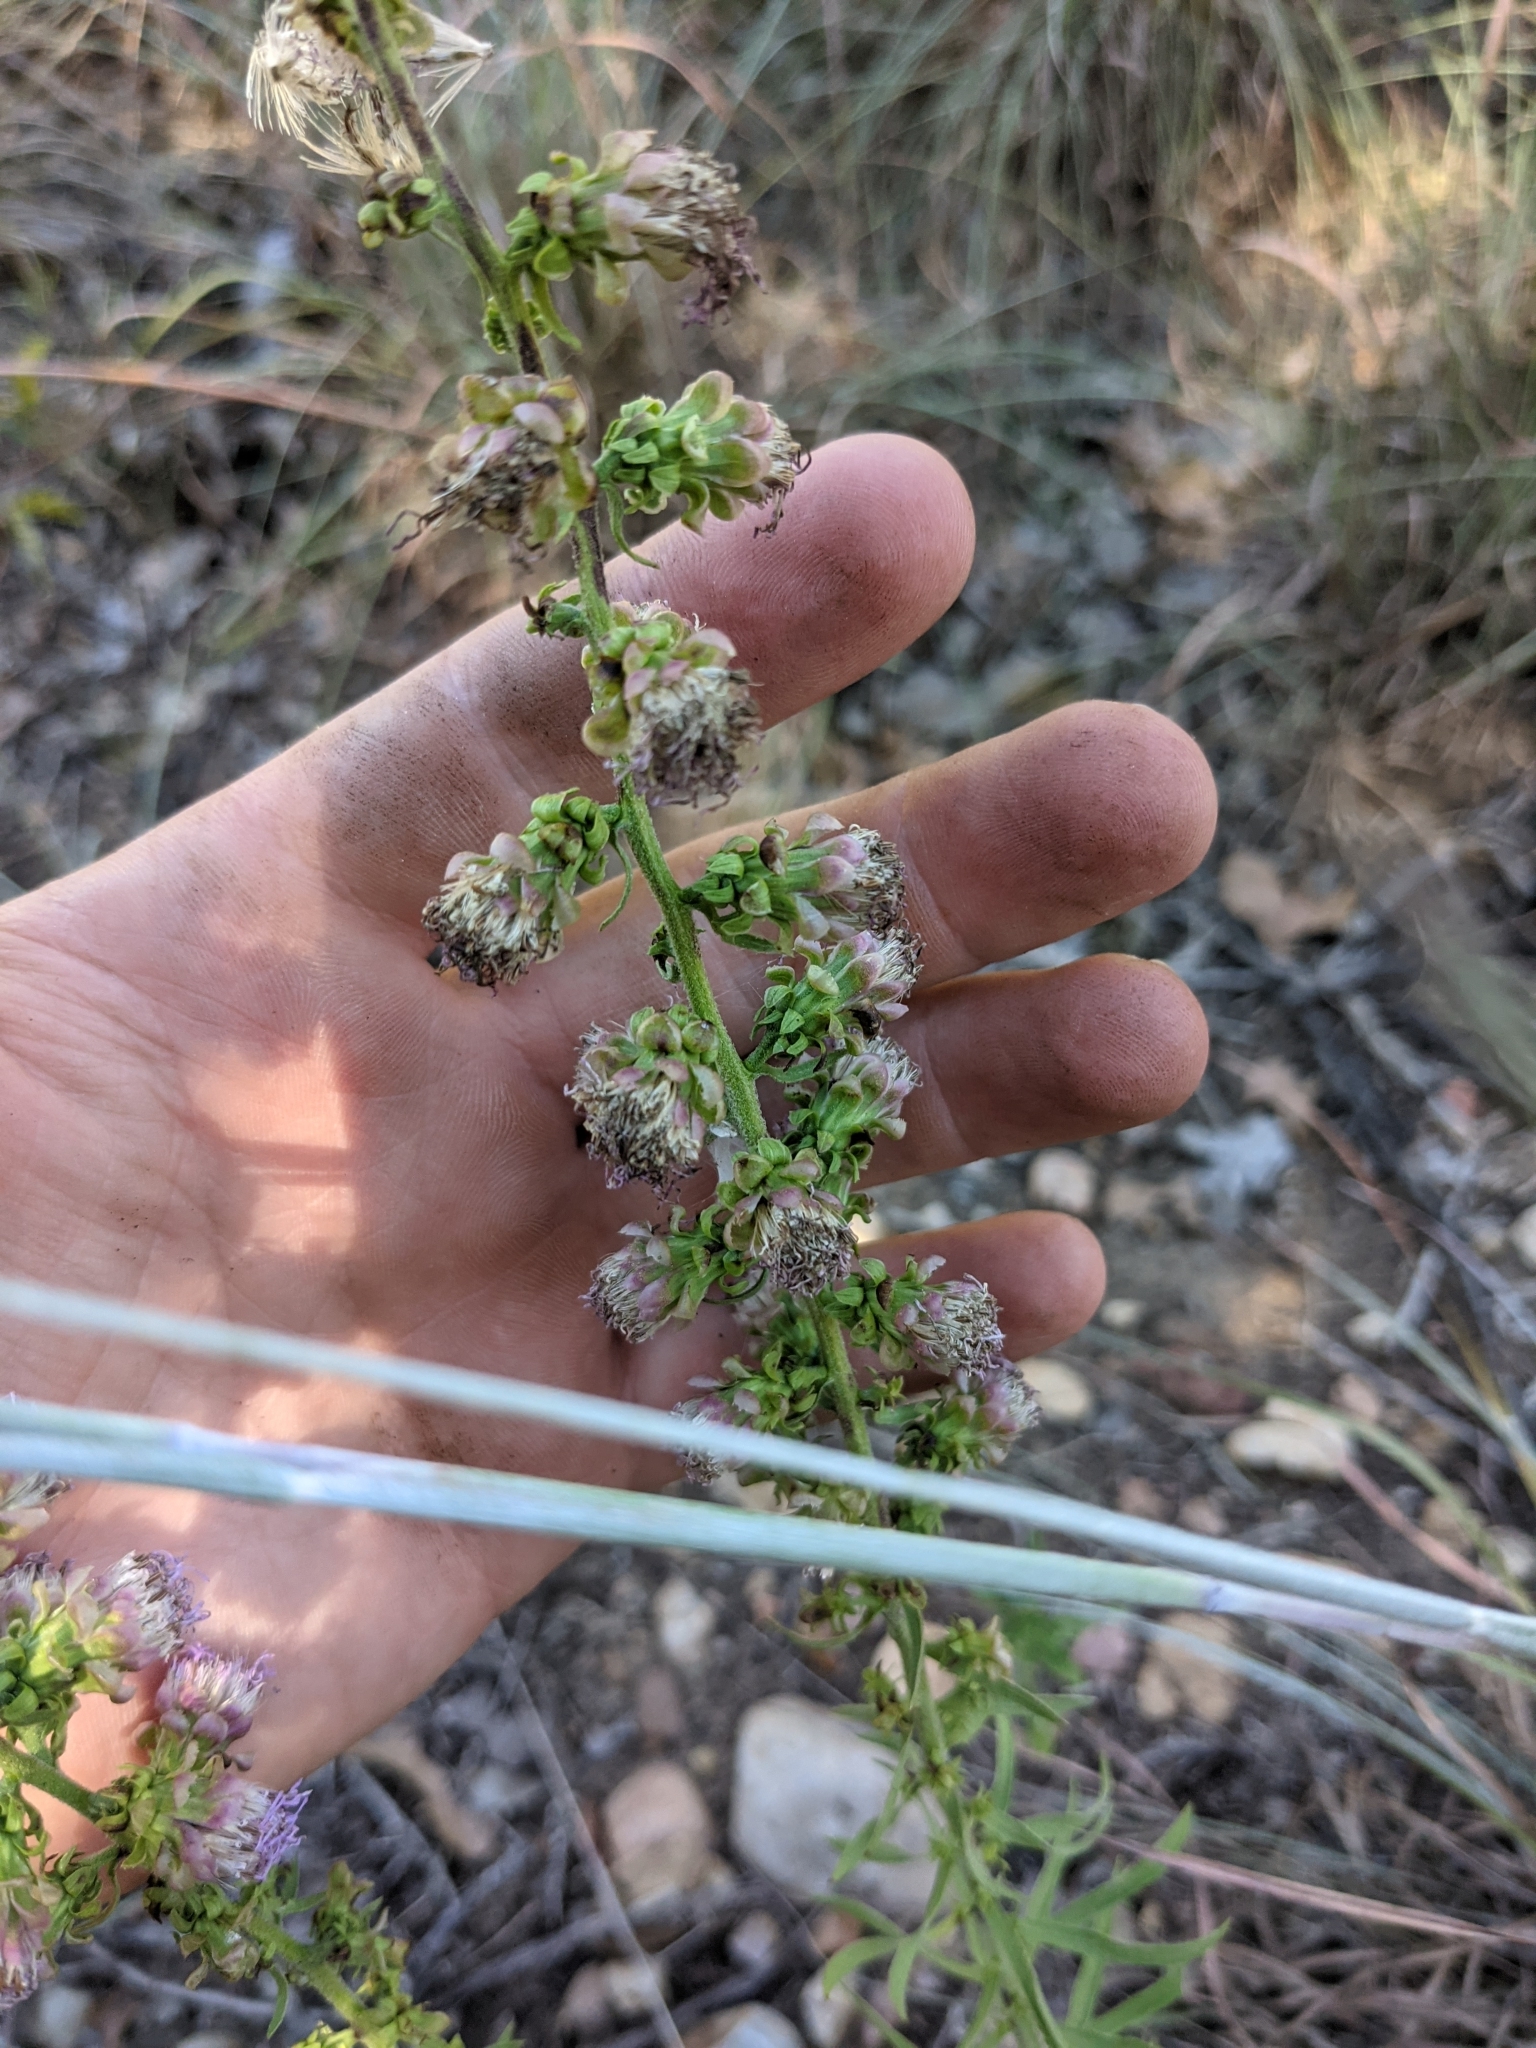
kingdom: Plantae
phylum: Tracheophyta
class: Magnoliopsida
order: Asterales
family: Asteraceae
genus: Liatris
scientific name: Liatris aspera
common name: Lacerate blazing-star
